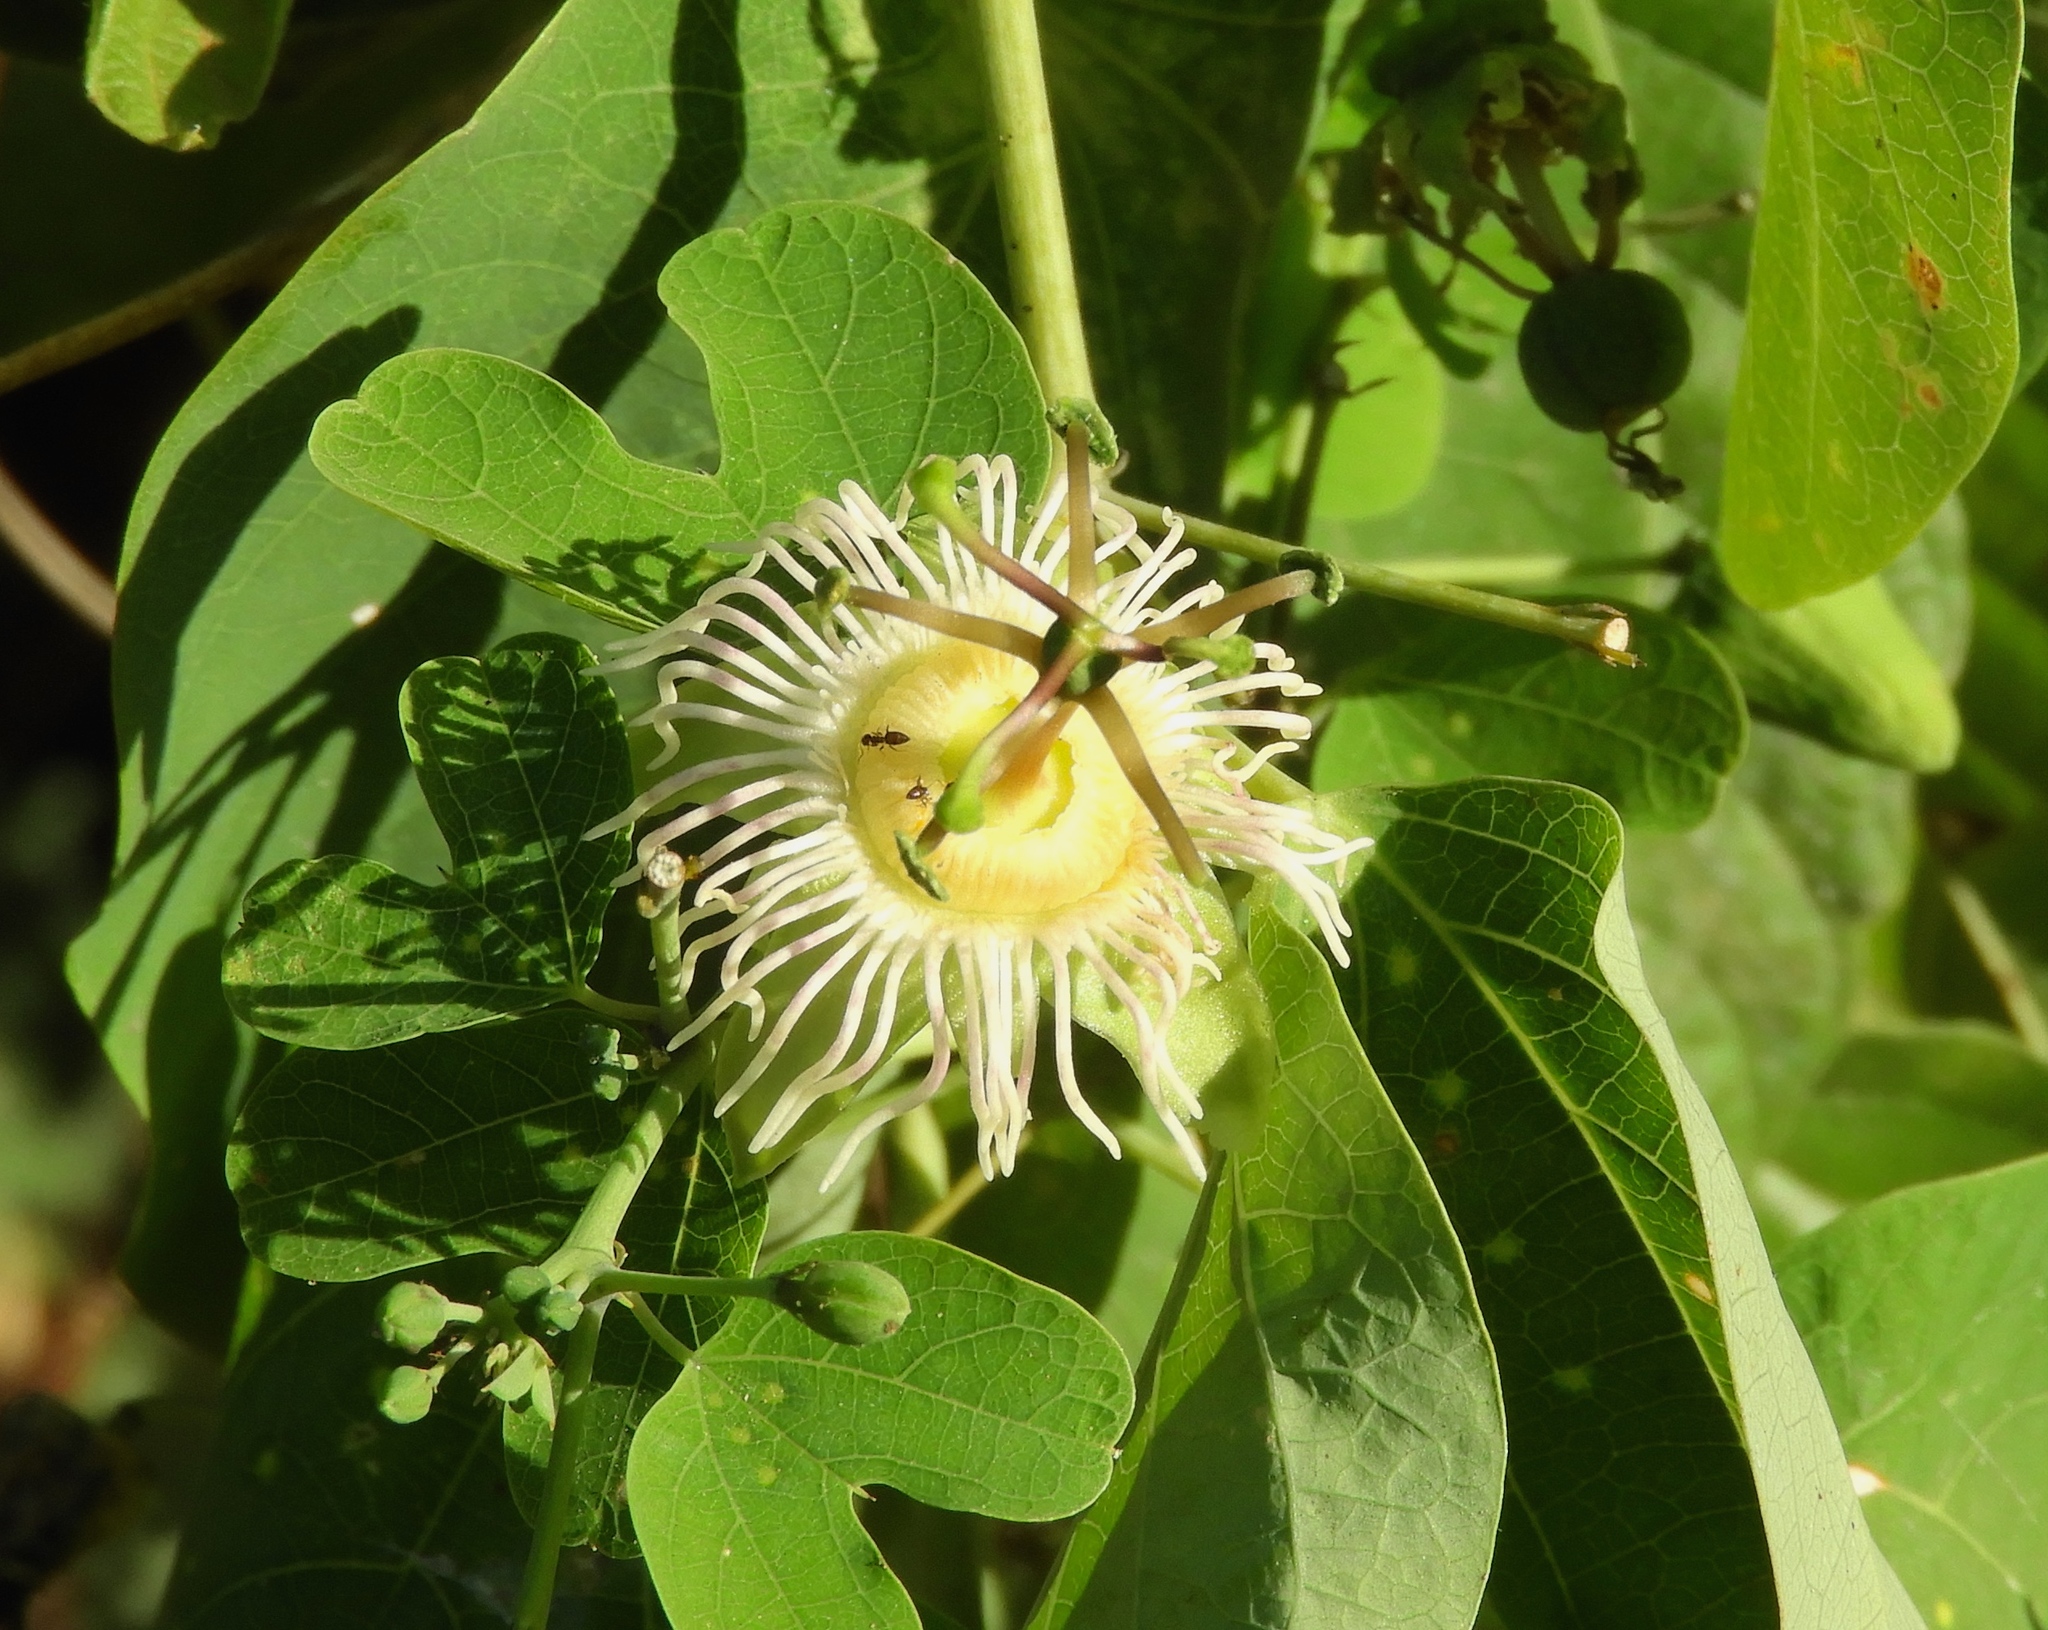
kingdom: Plantae
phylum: Tracheophyta
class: Magnoliopsida
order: Malpighiales
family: Passifloraceae
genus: Passiflora
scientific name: Passiflora mexicana
